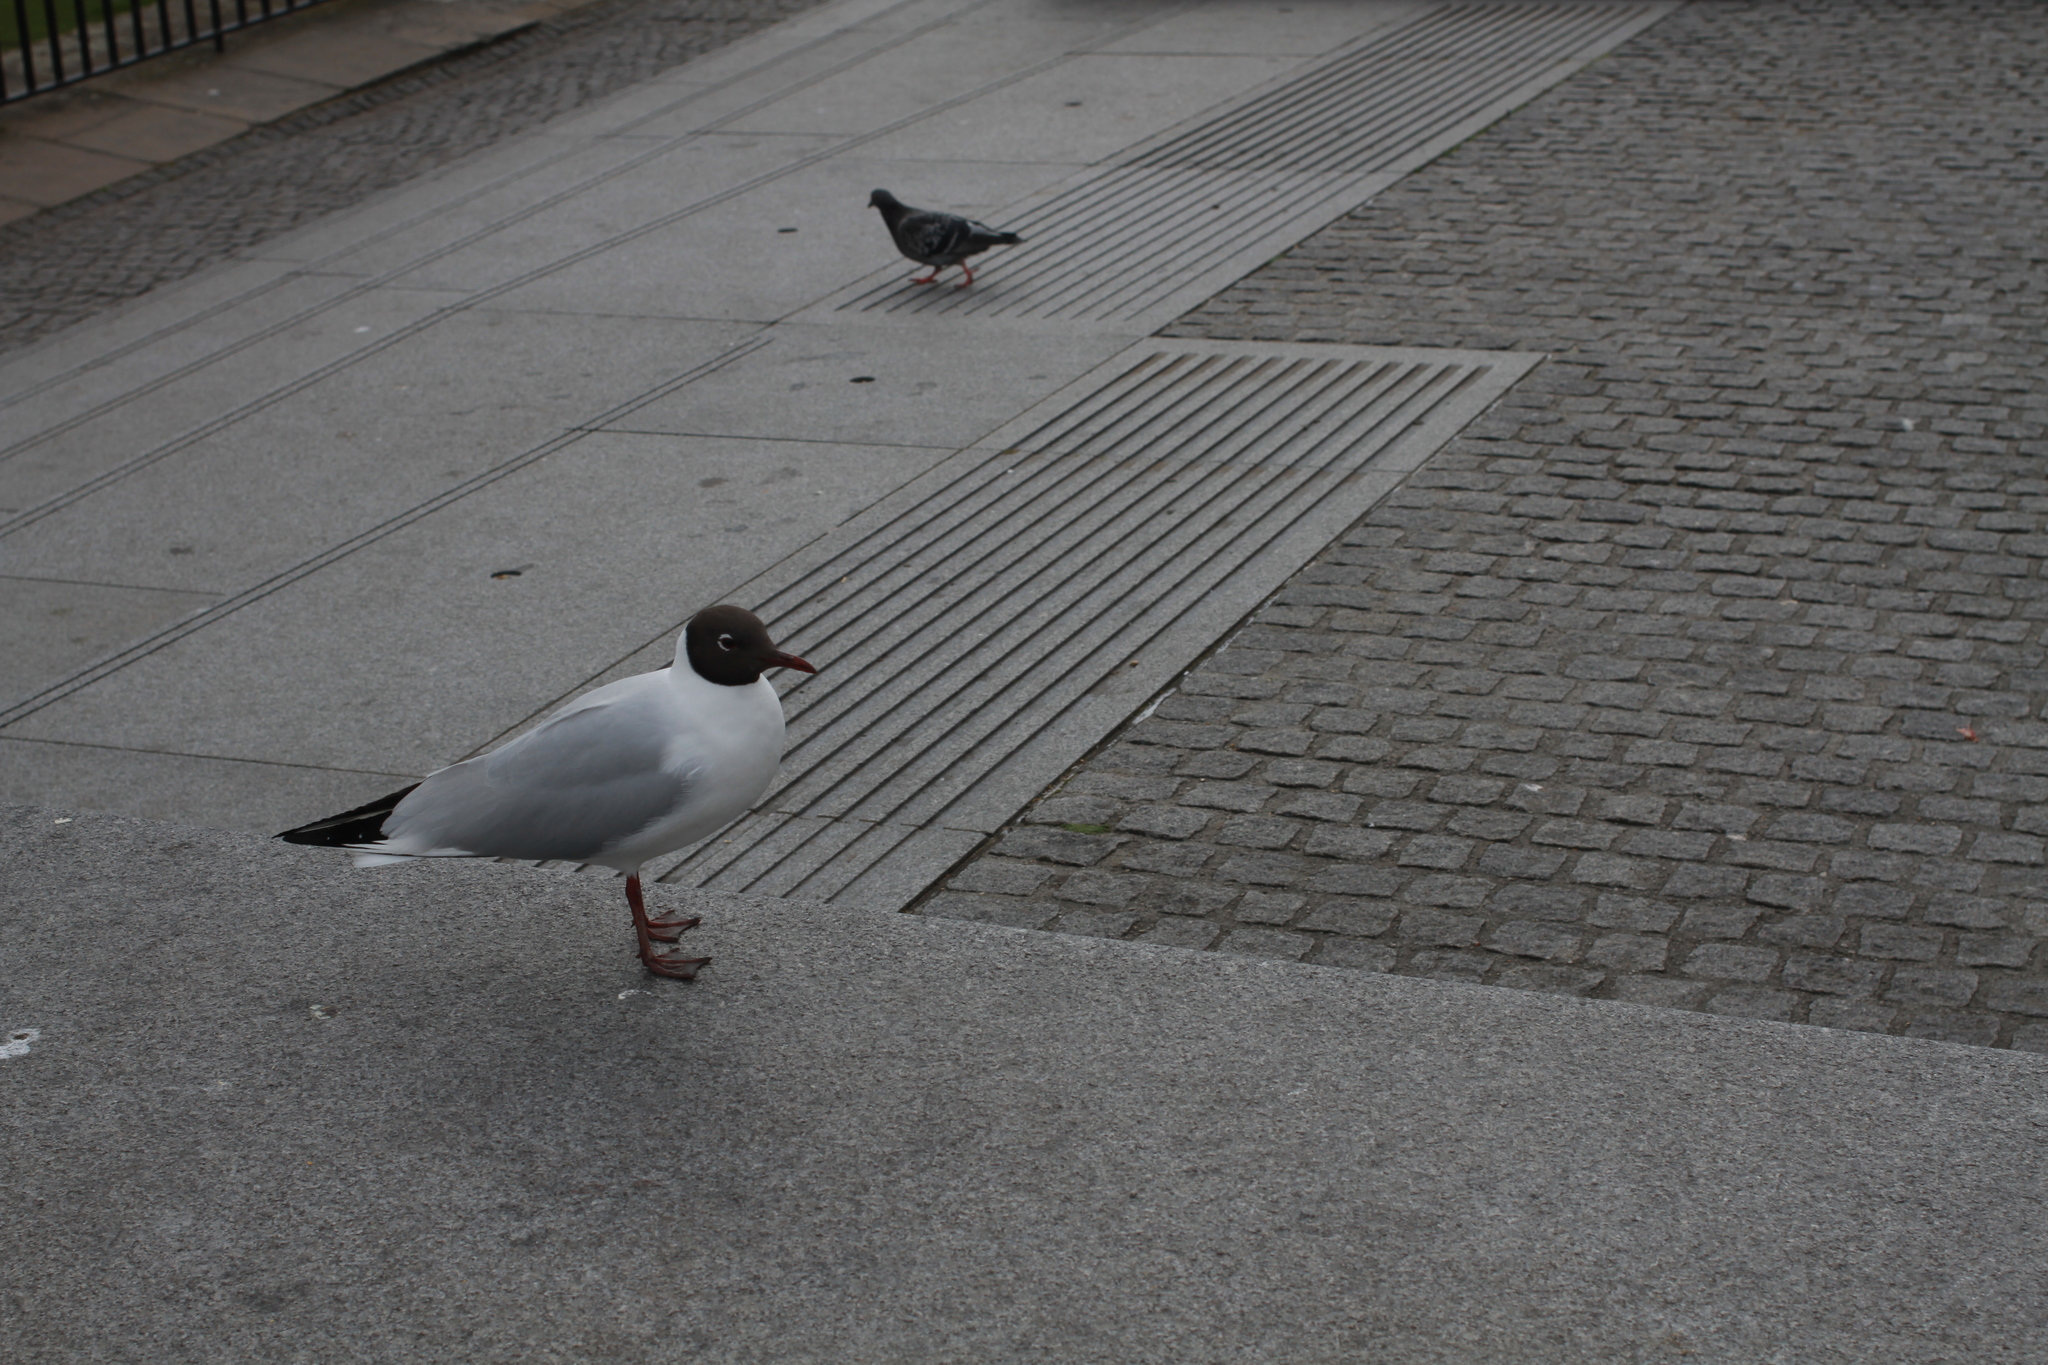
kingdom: Animalia
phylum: Chordata
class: Aves
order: Charadriiformes
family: Laridae
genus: Chroicocephalus
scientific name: Chroicocephalus ridibundus
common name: Black-headed gull
